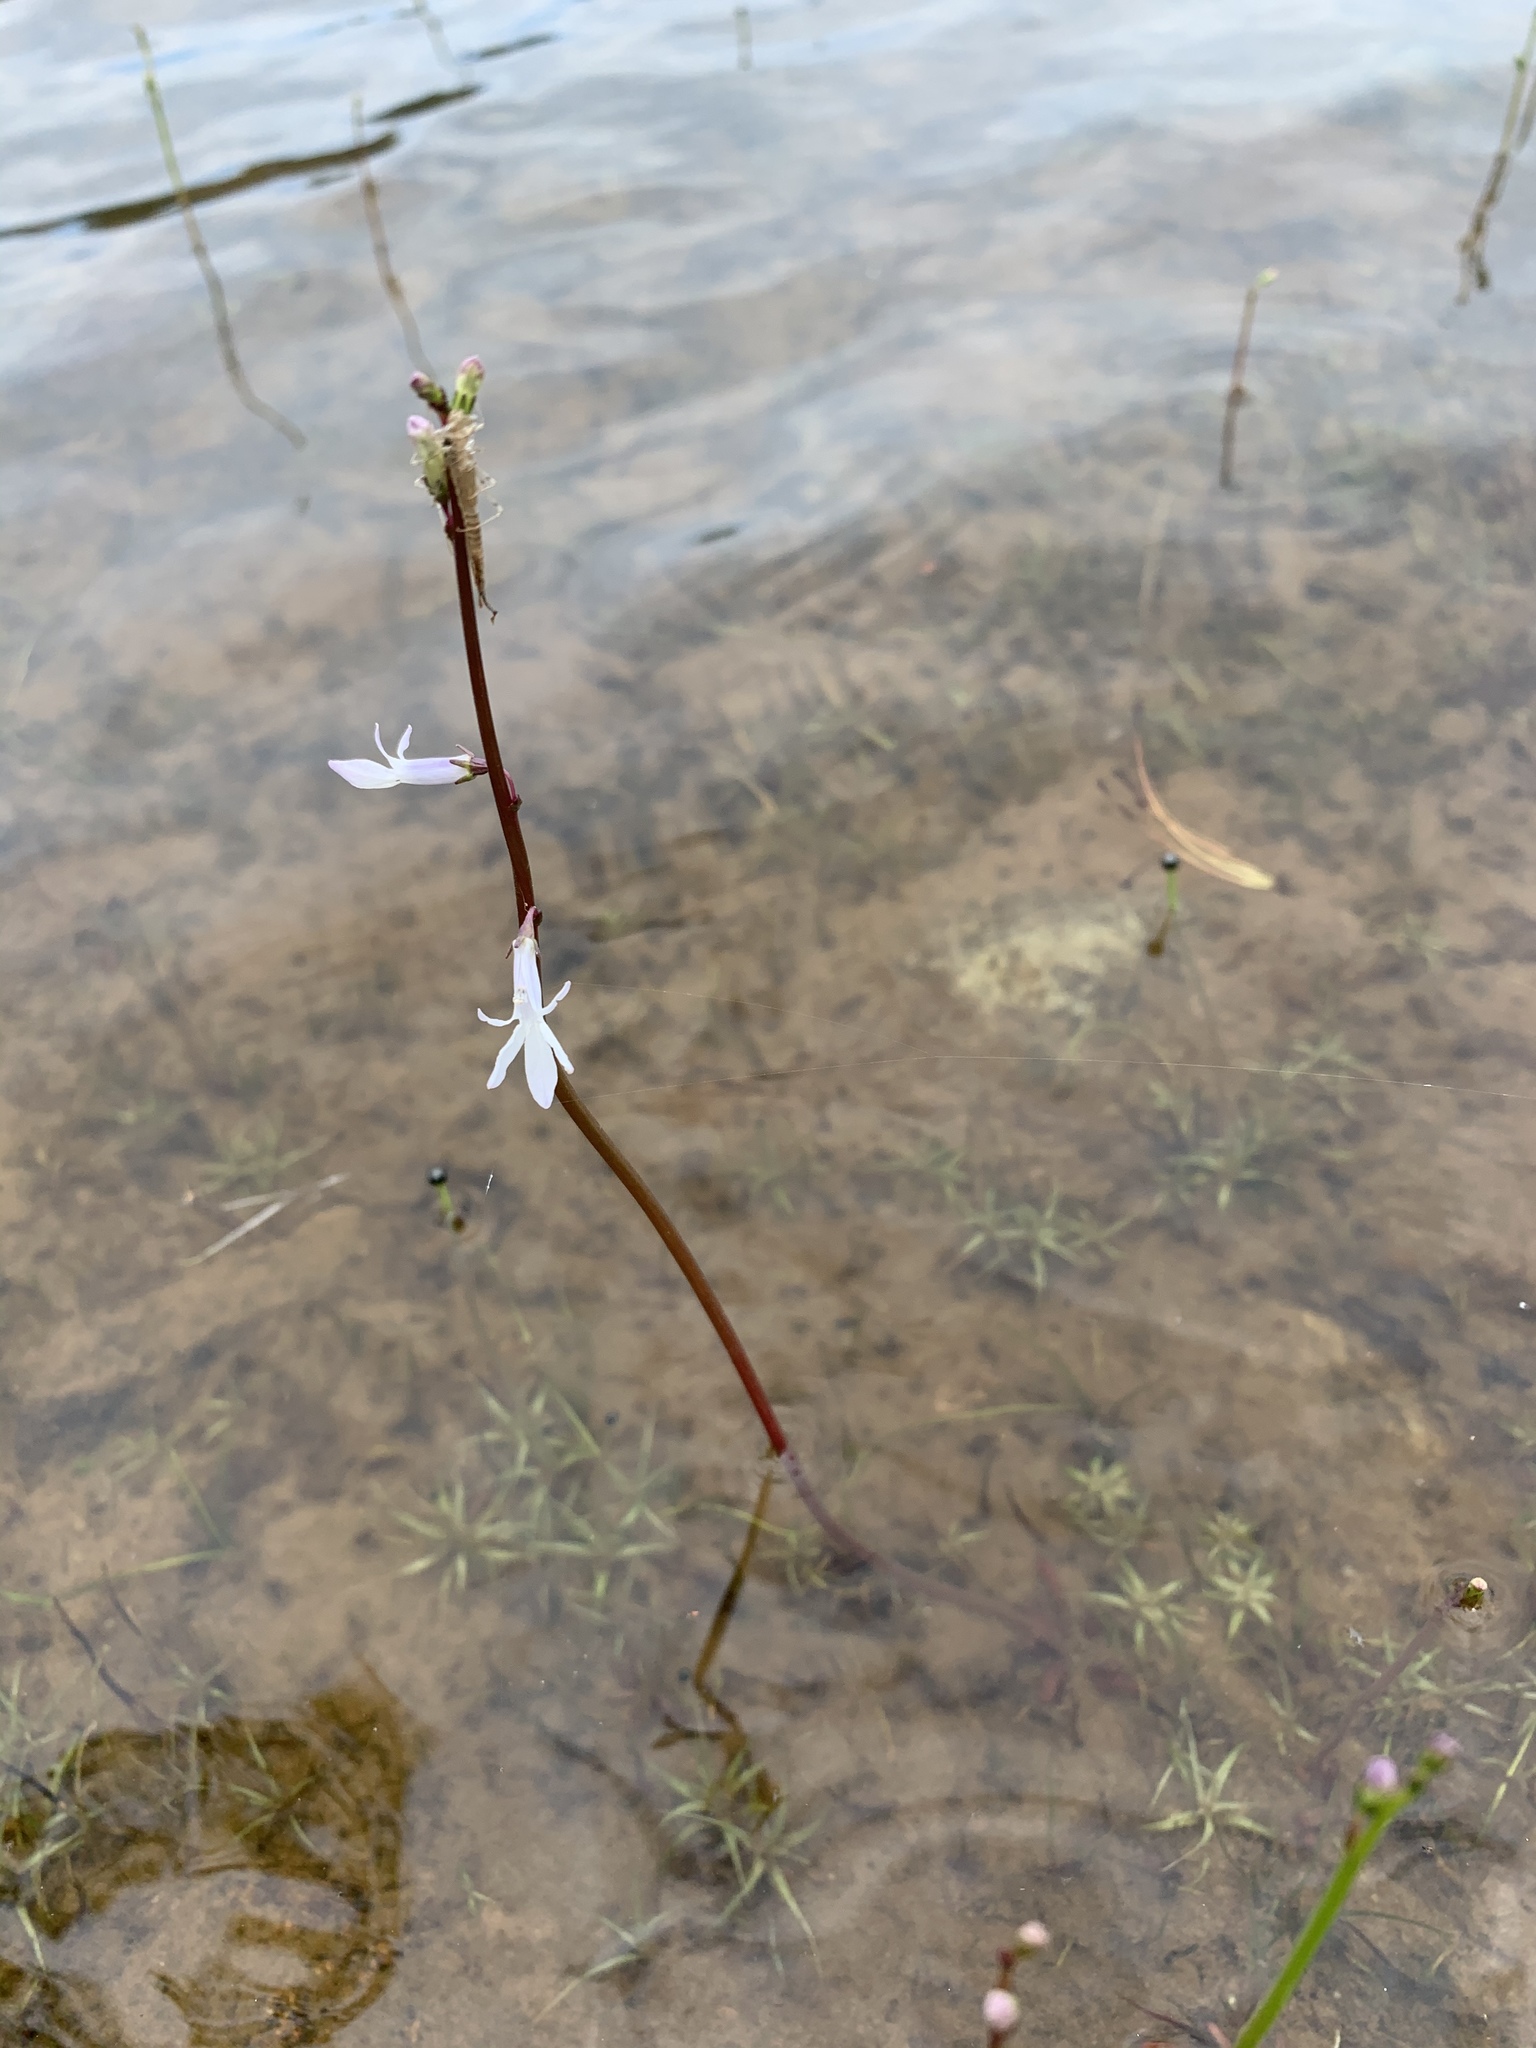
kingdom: Plantae
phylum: Tracheophyta
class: Magnoliopsida
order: Asterales
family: Campanulaceae
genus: Lobelia
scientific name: Lobelia dortmanna
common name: Water lobelia
